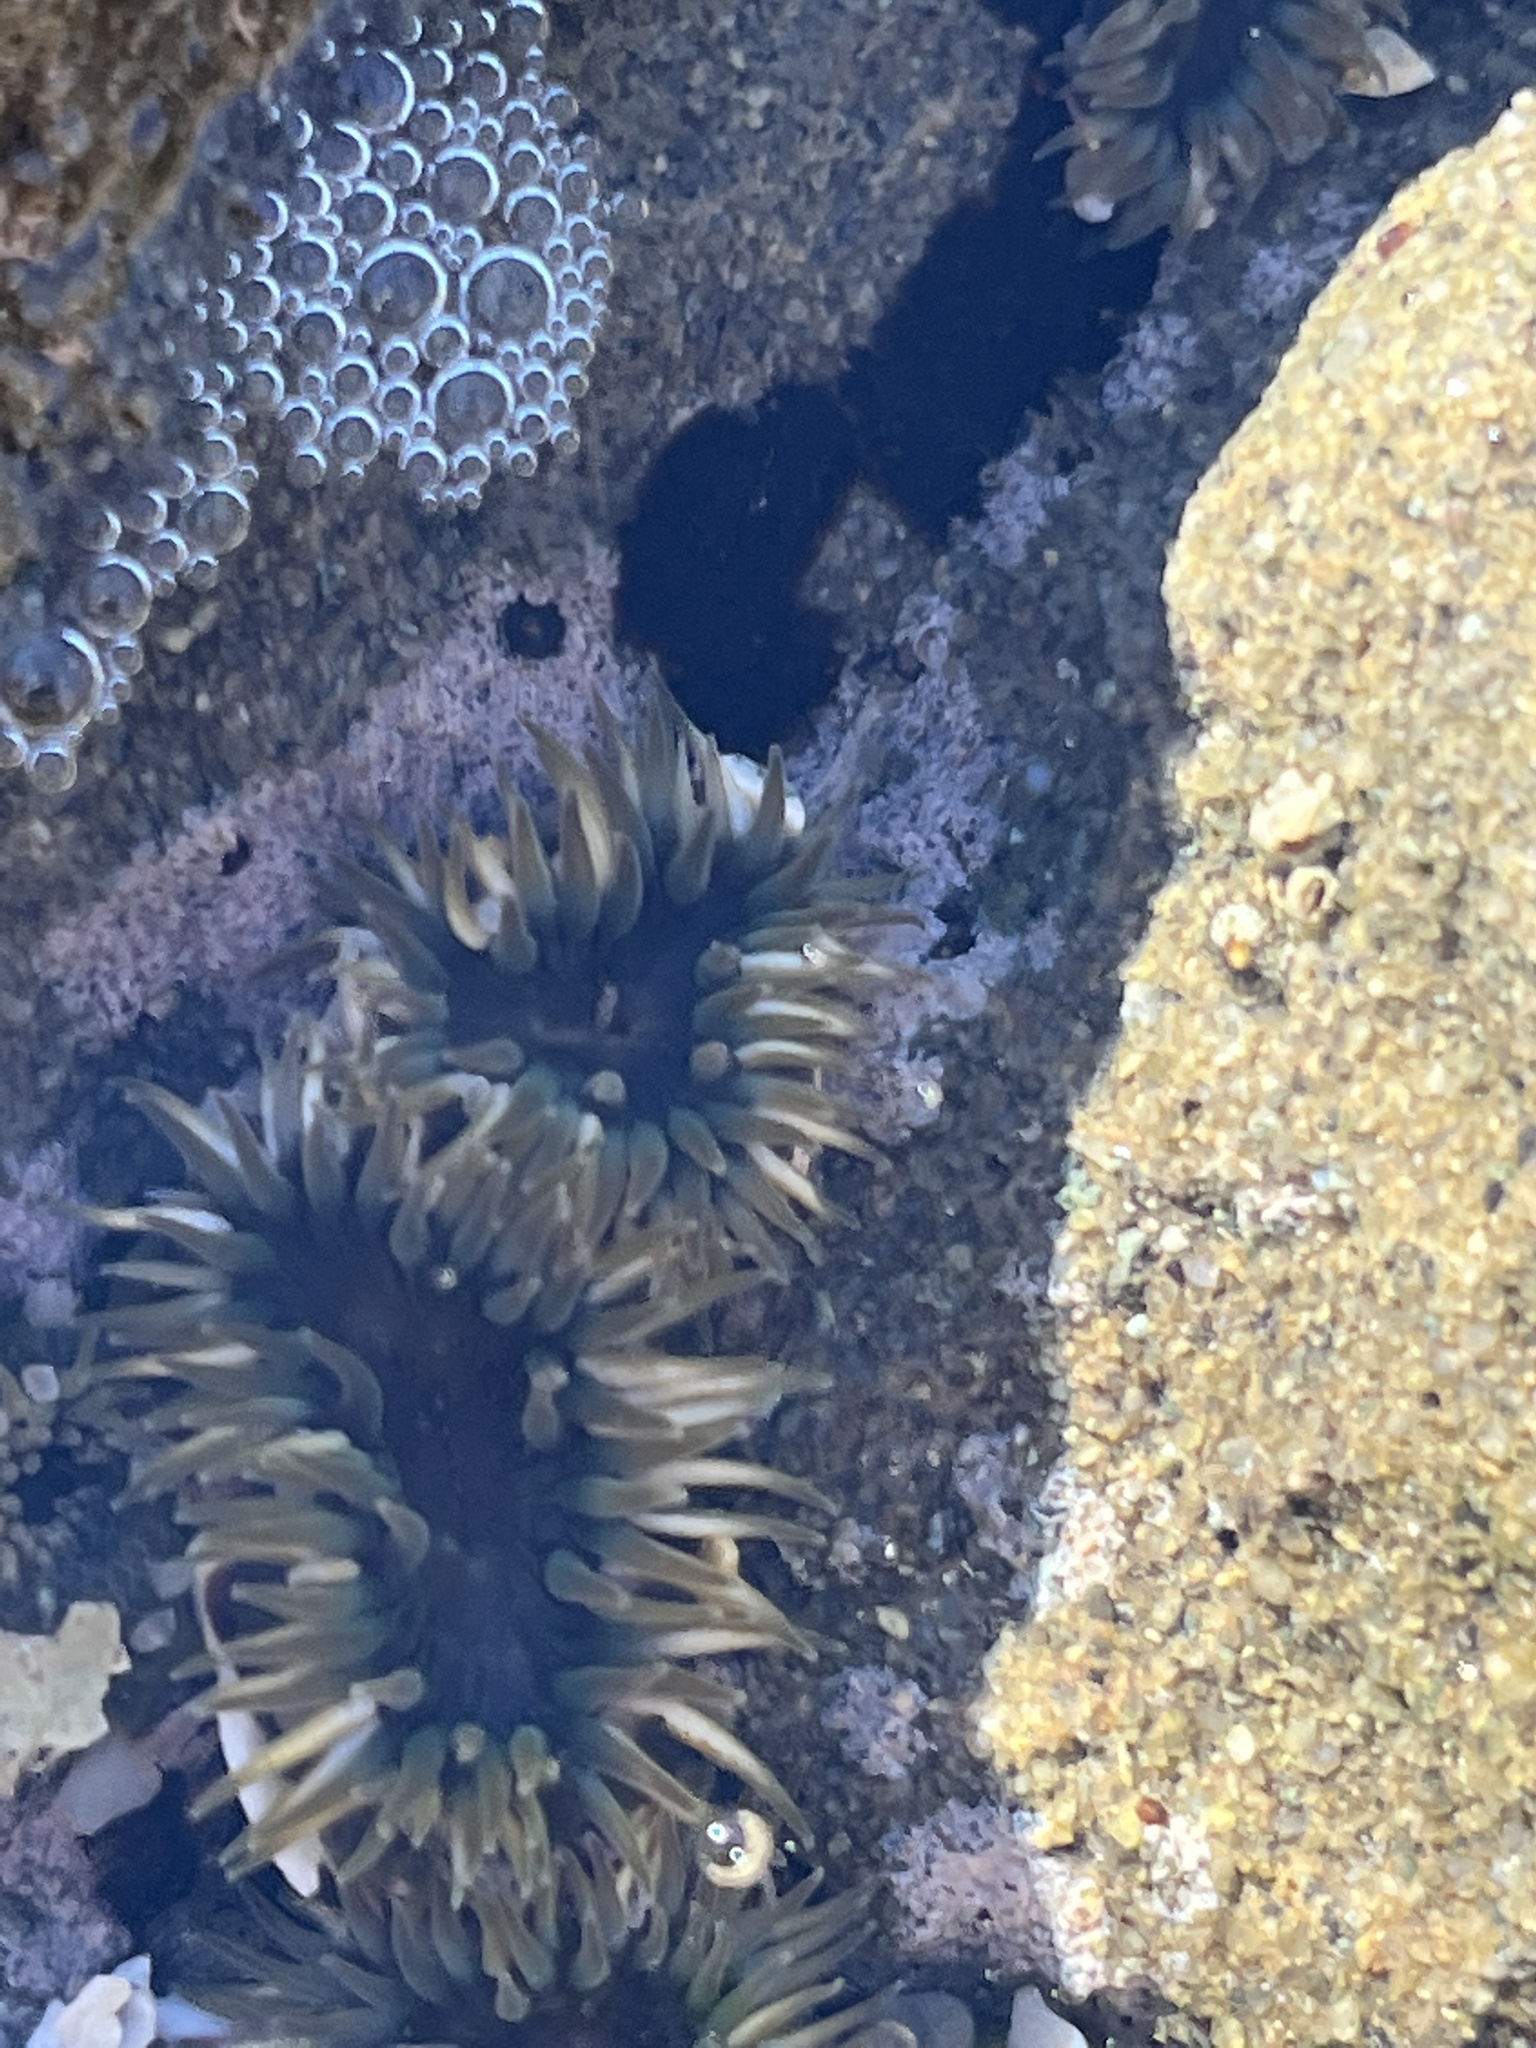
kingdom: Animalia
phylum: Cnidaria
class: Anthozoa
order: Actiniaria
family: Actiniidae
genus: Anthopleura
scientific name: Anthopleura elegantissima
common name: Clonal anemone
